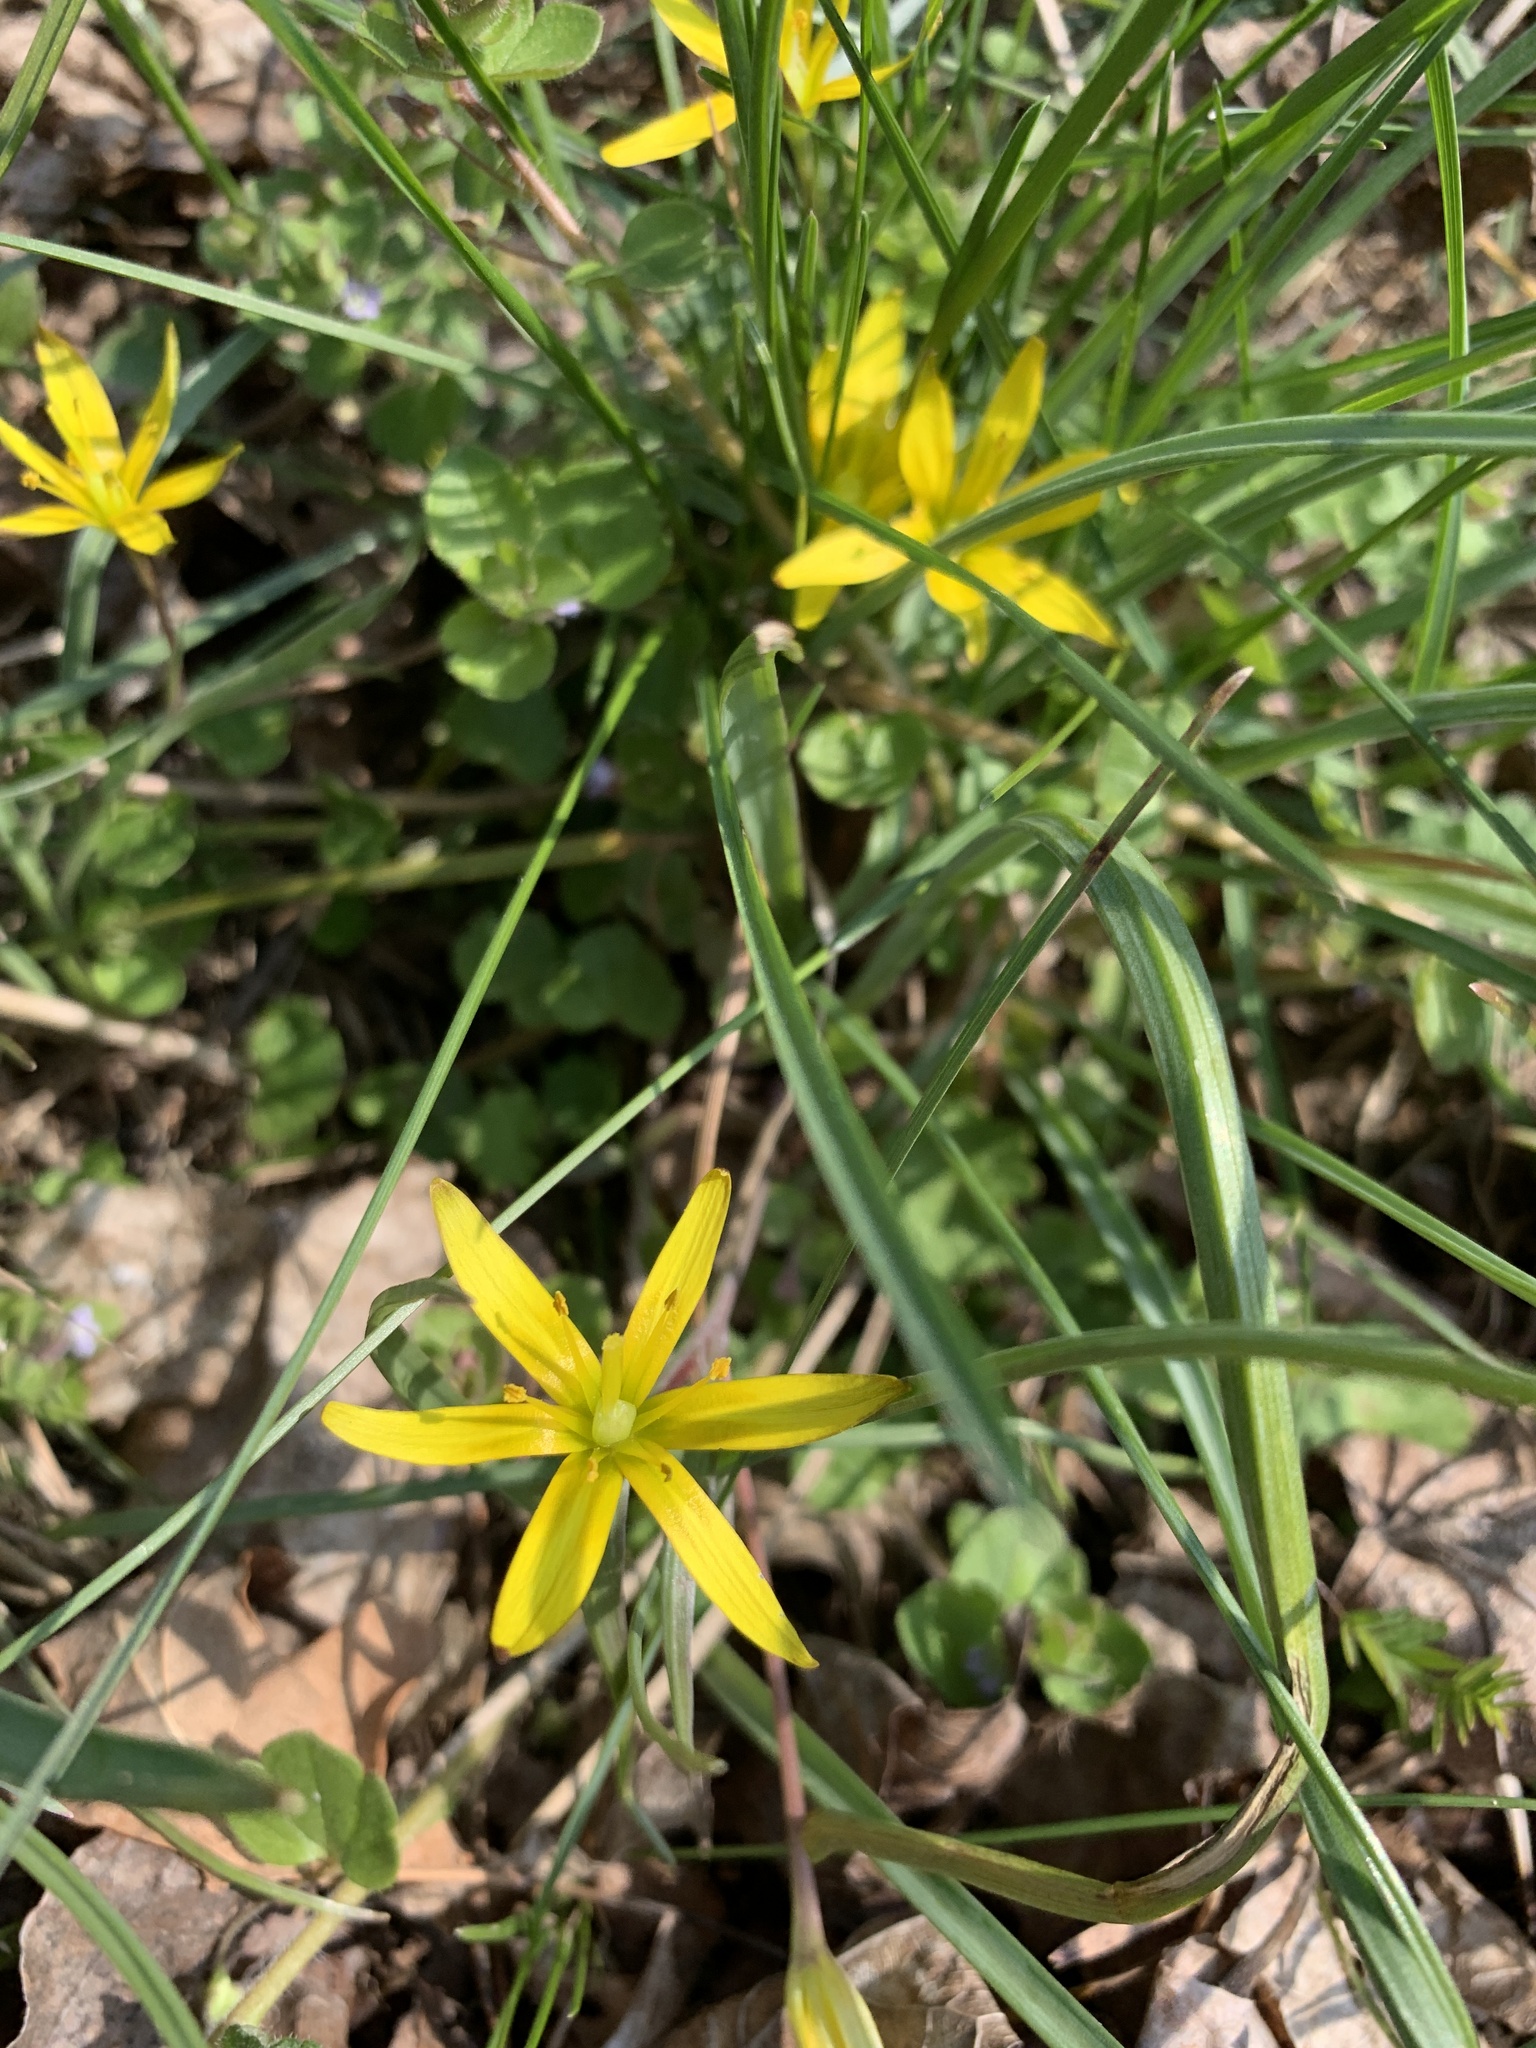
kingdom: Plantae
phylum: Tracheophyta
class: Liliopsida
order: Liliales
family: Liliaceae
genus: Gagea
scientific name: Gagea pratensis
